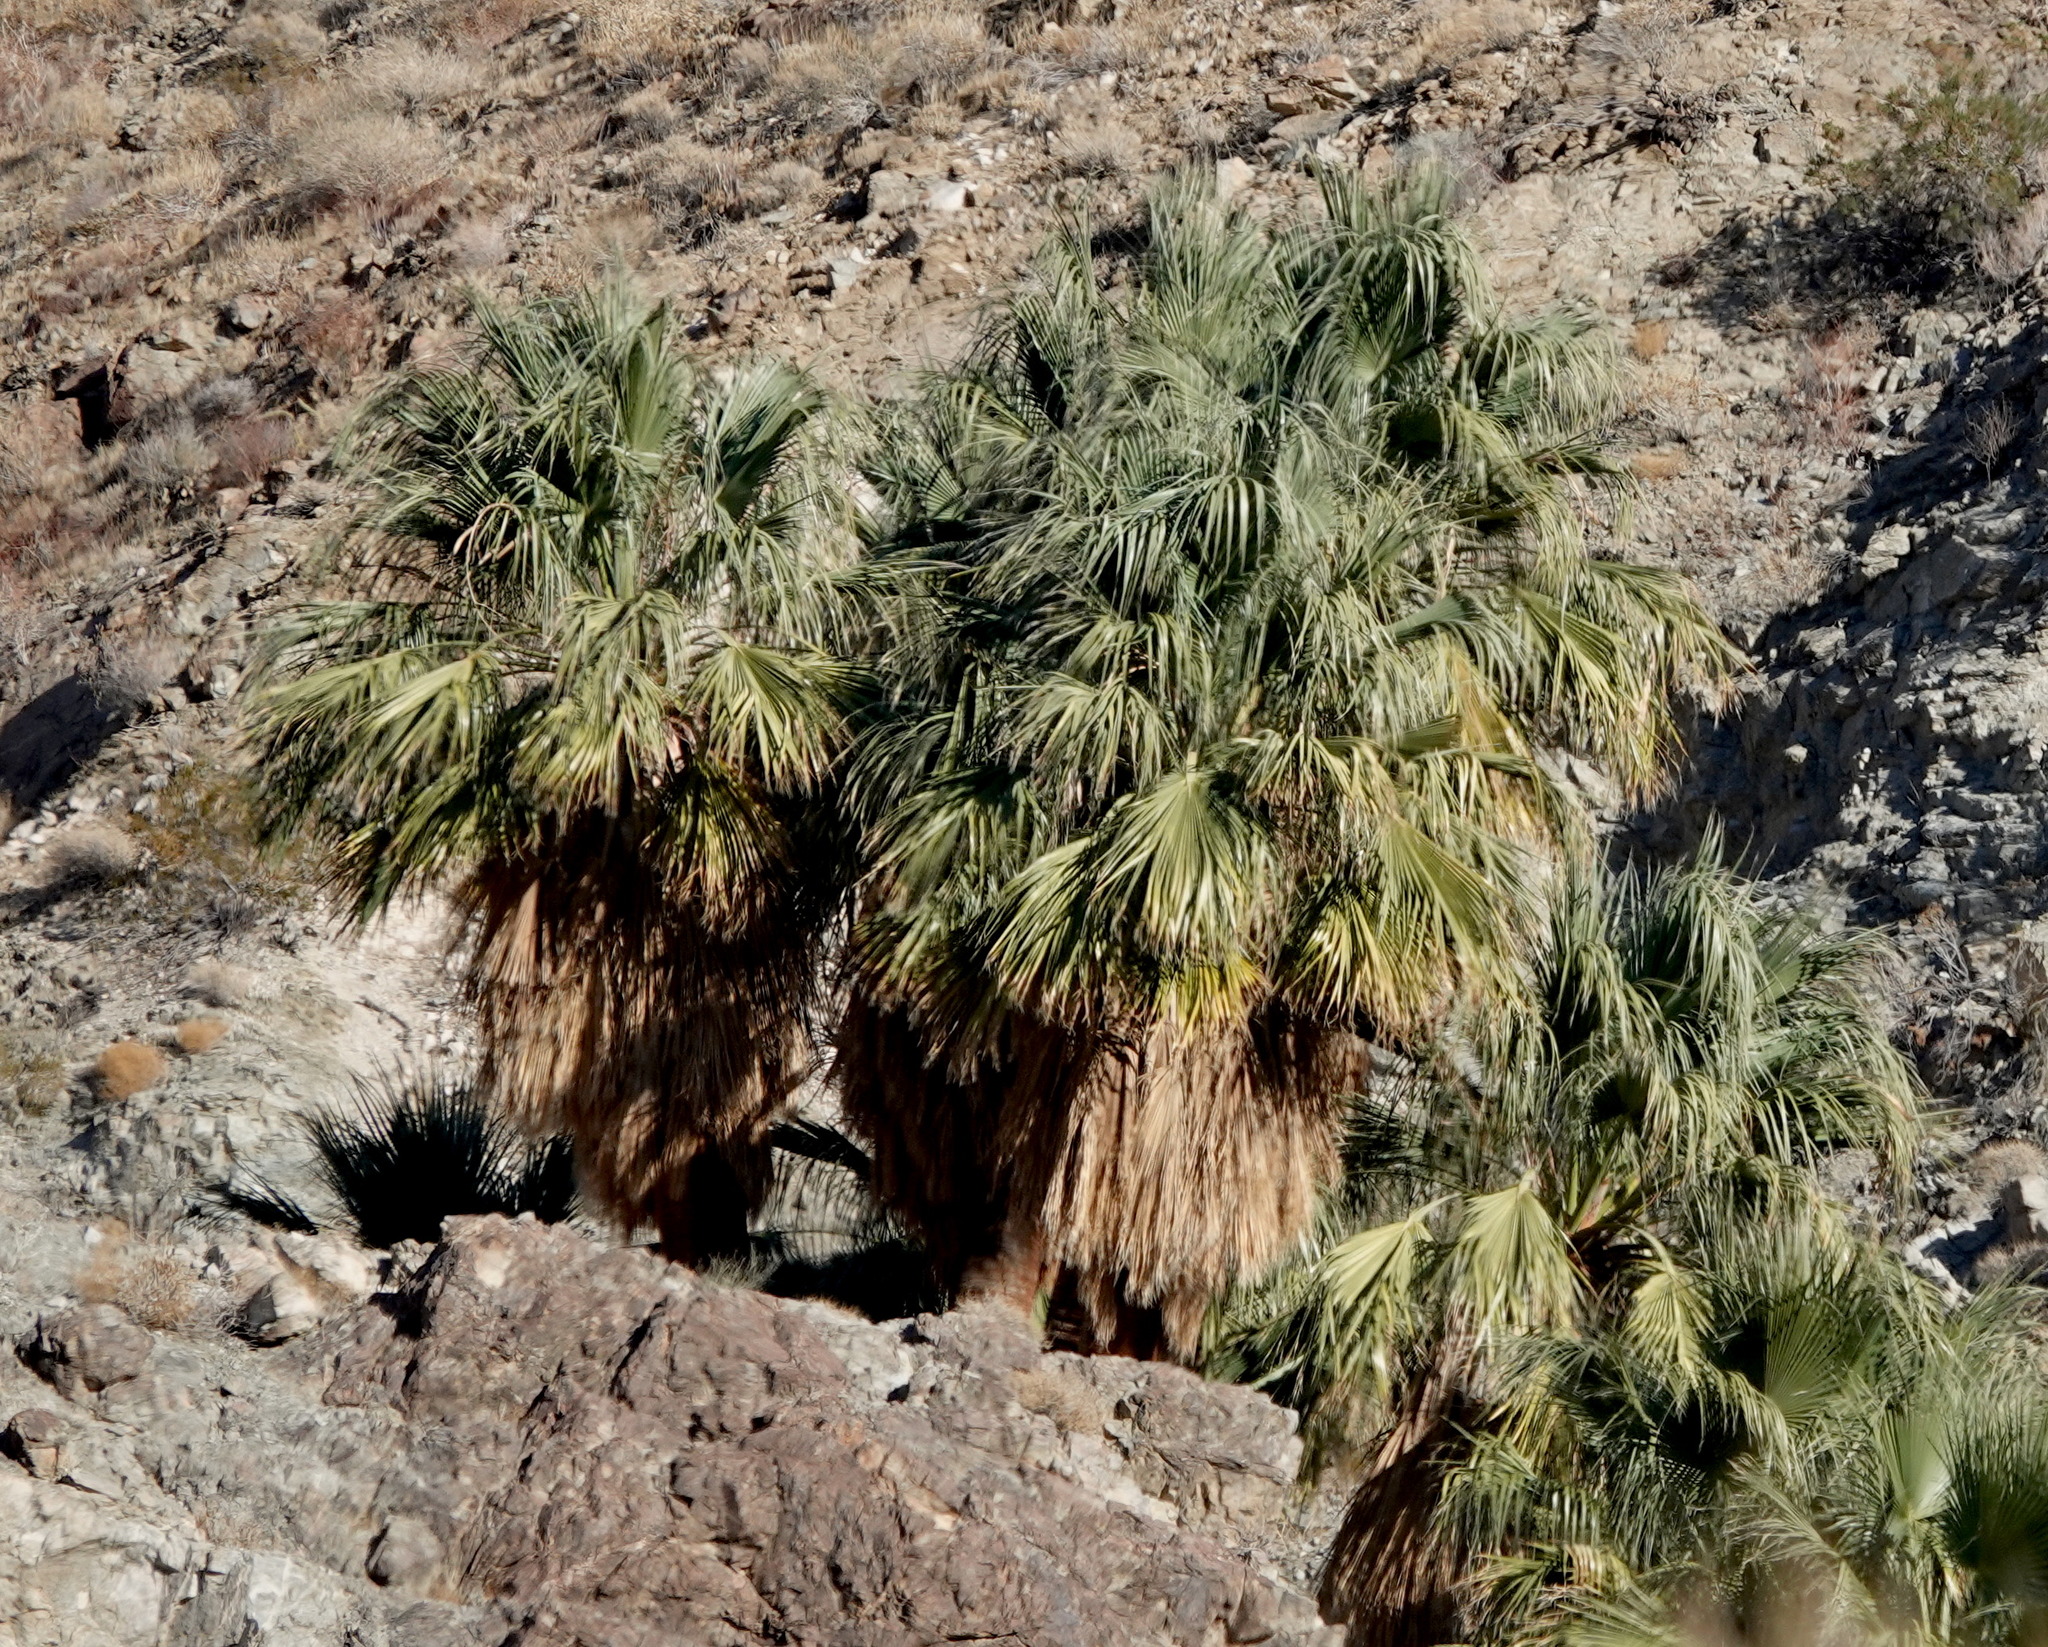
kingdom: Plantae
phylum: Tracheophyta
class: Liliopsida
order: Arecales
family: Arecaceae
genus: Washingtonia
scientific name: Washingtonia filifera
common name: California fan palm
